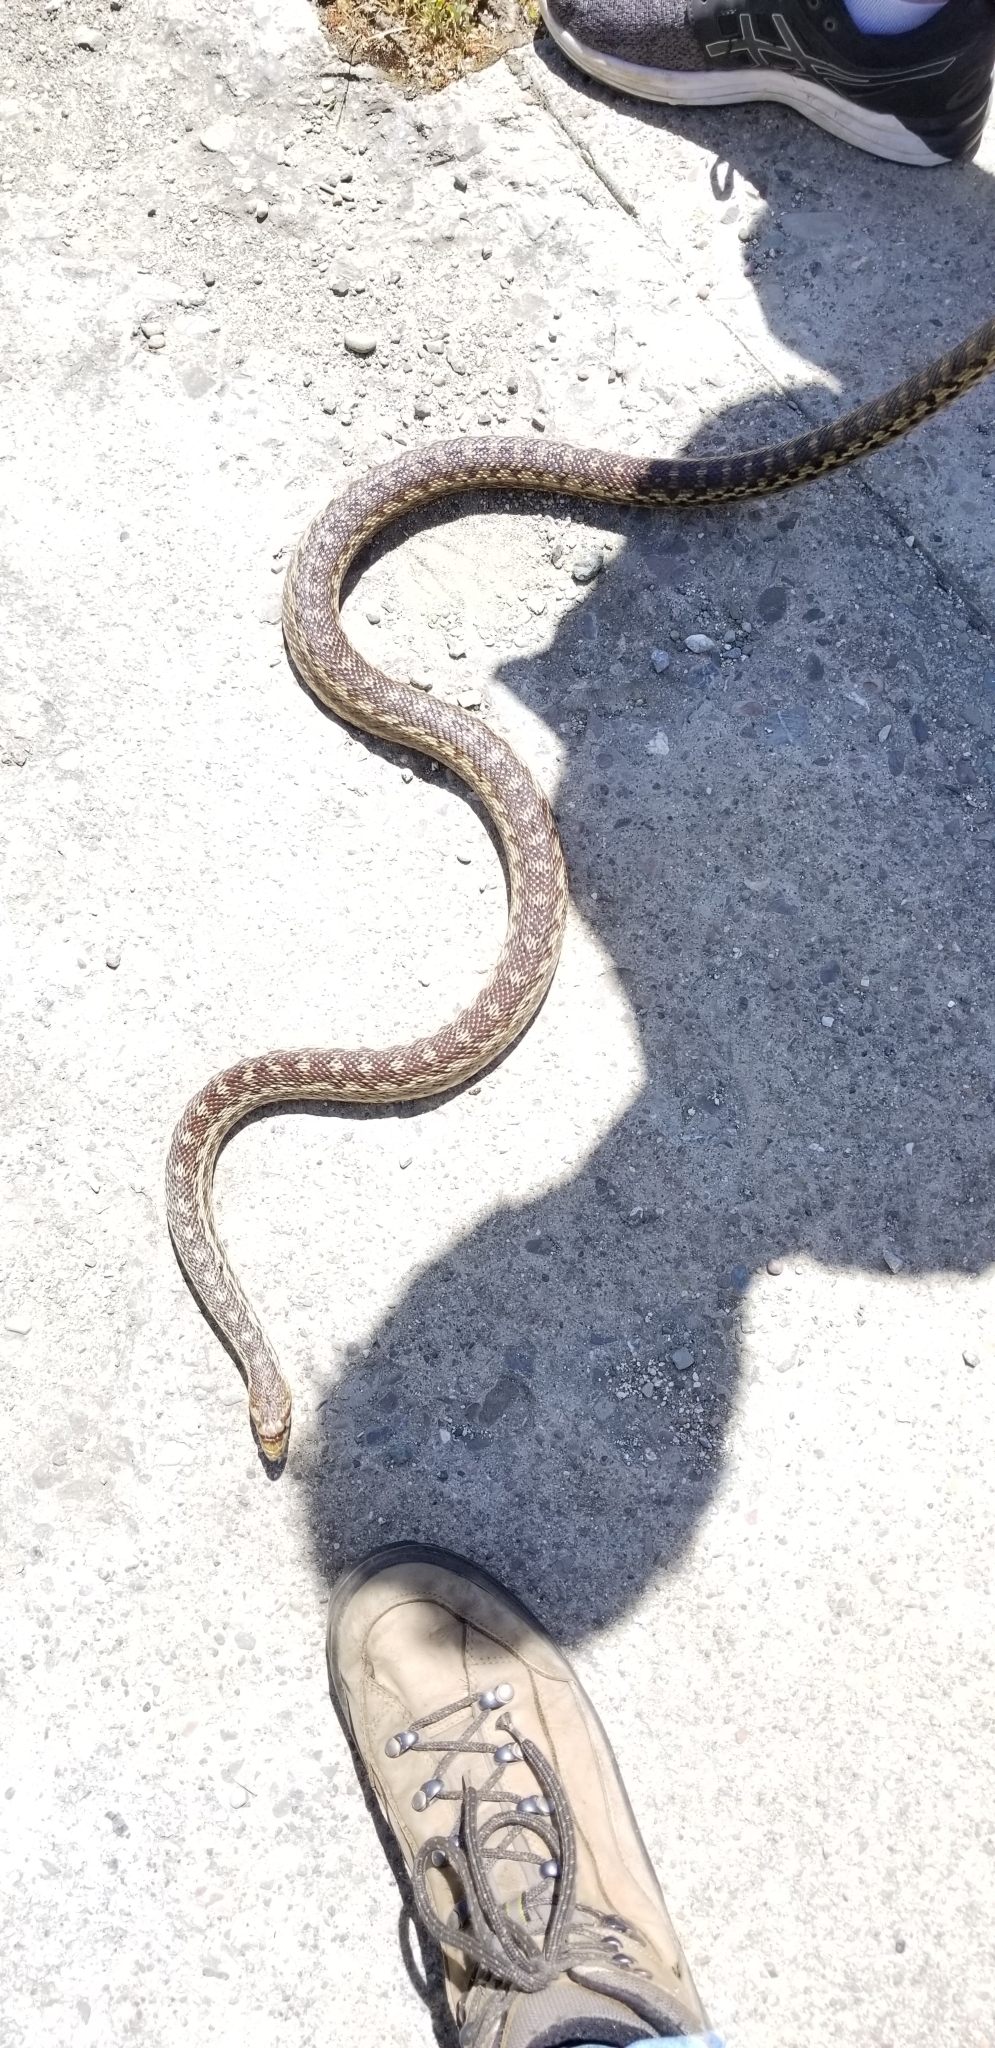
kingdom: Animalia
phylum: Chordata
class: Squamata
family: Colubridae
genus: Pituophis
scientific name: Pituophis catenifer
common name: Gopher snake
